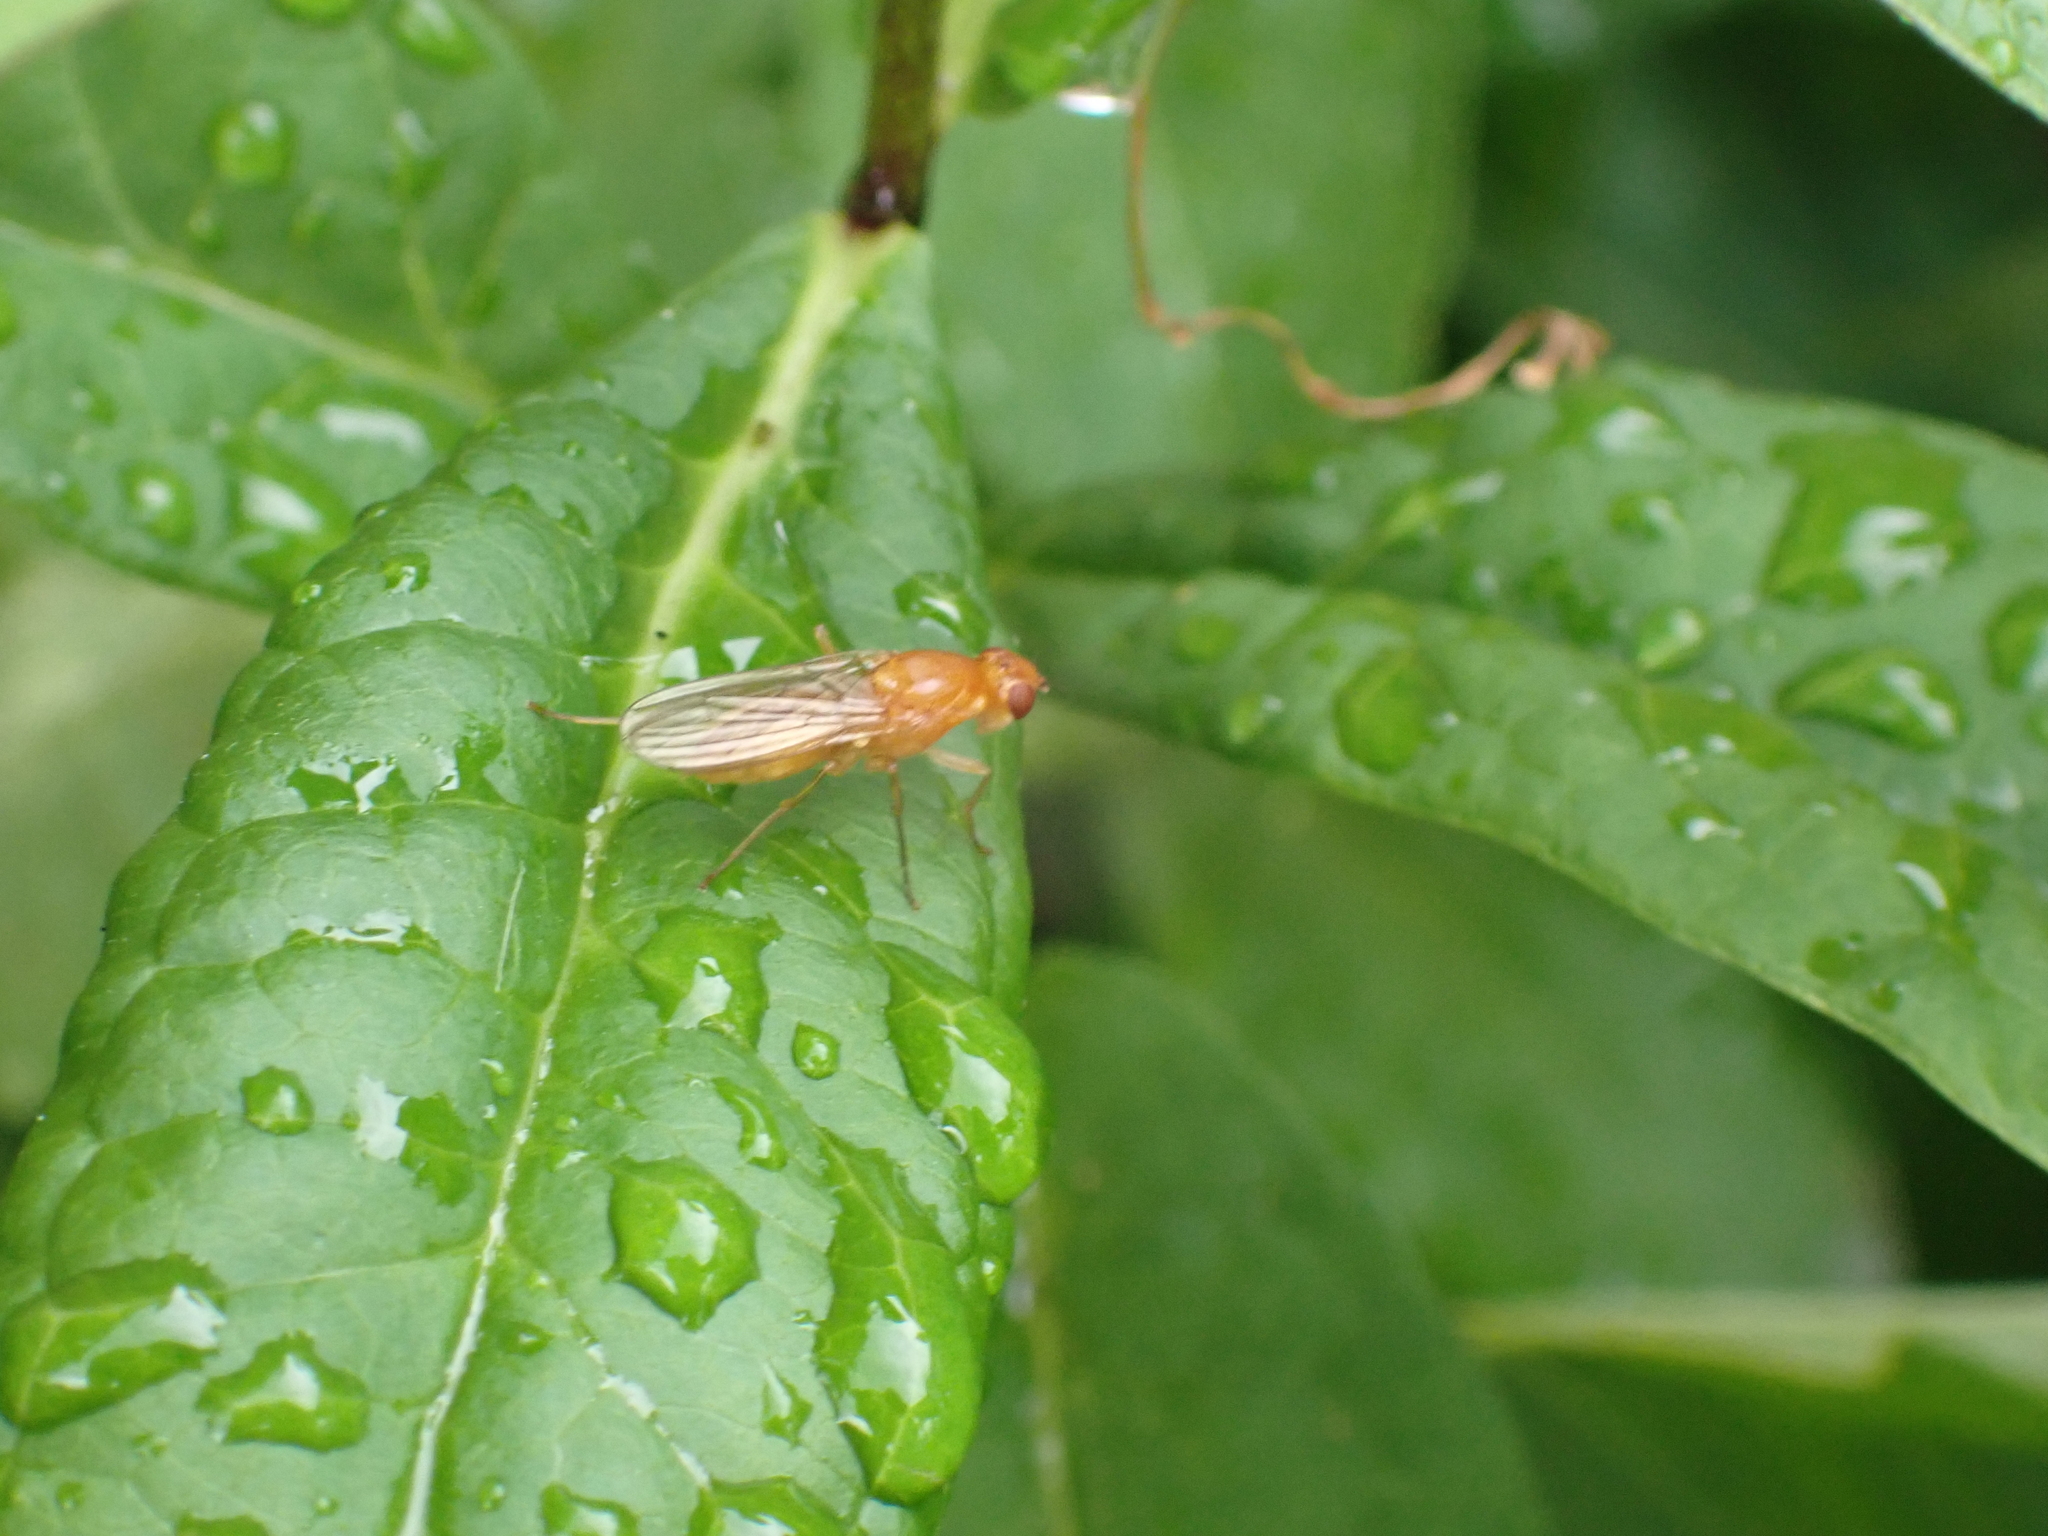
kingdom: Animalia
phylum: Arthropoda
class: Insecta
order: Diptera
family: Psilidae
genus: Psila
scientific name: Psila fimetaria
